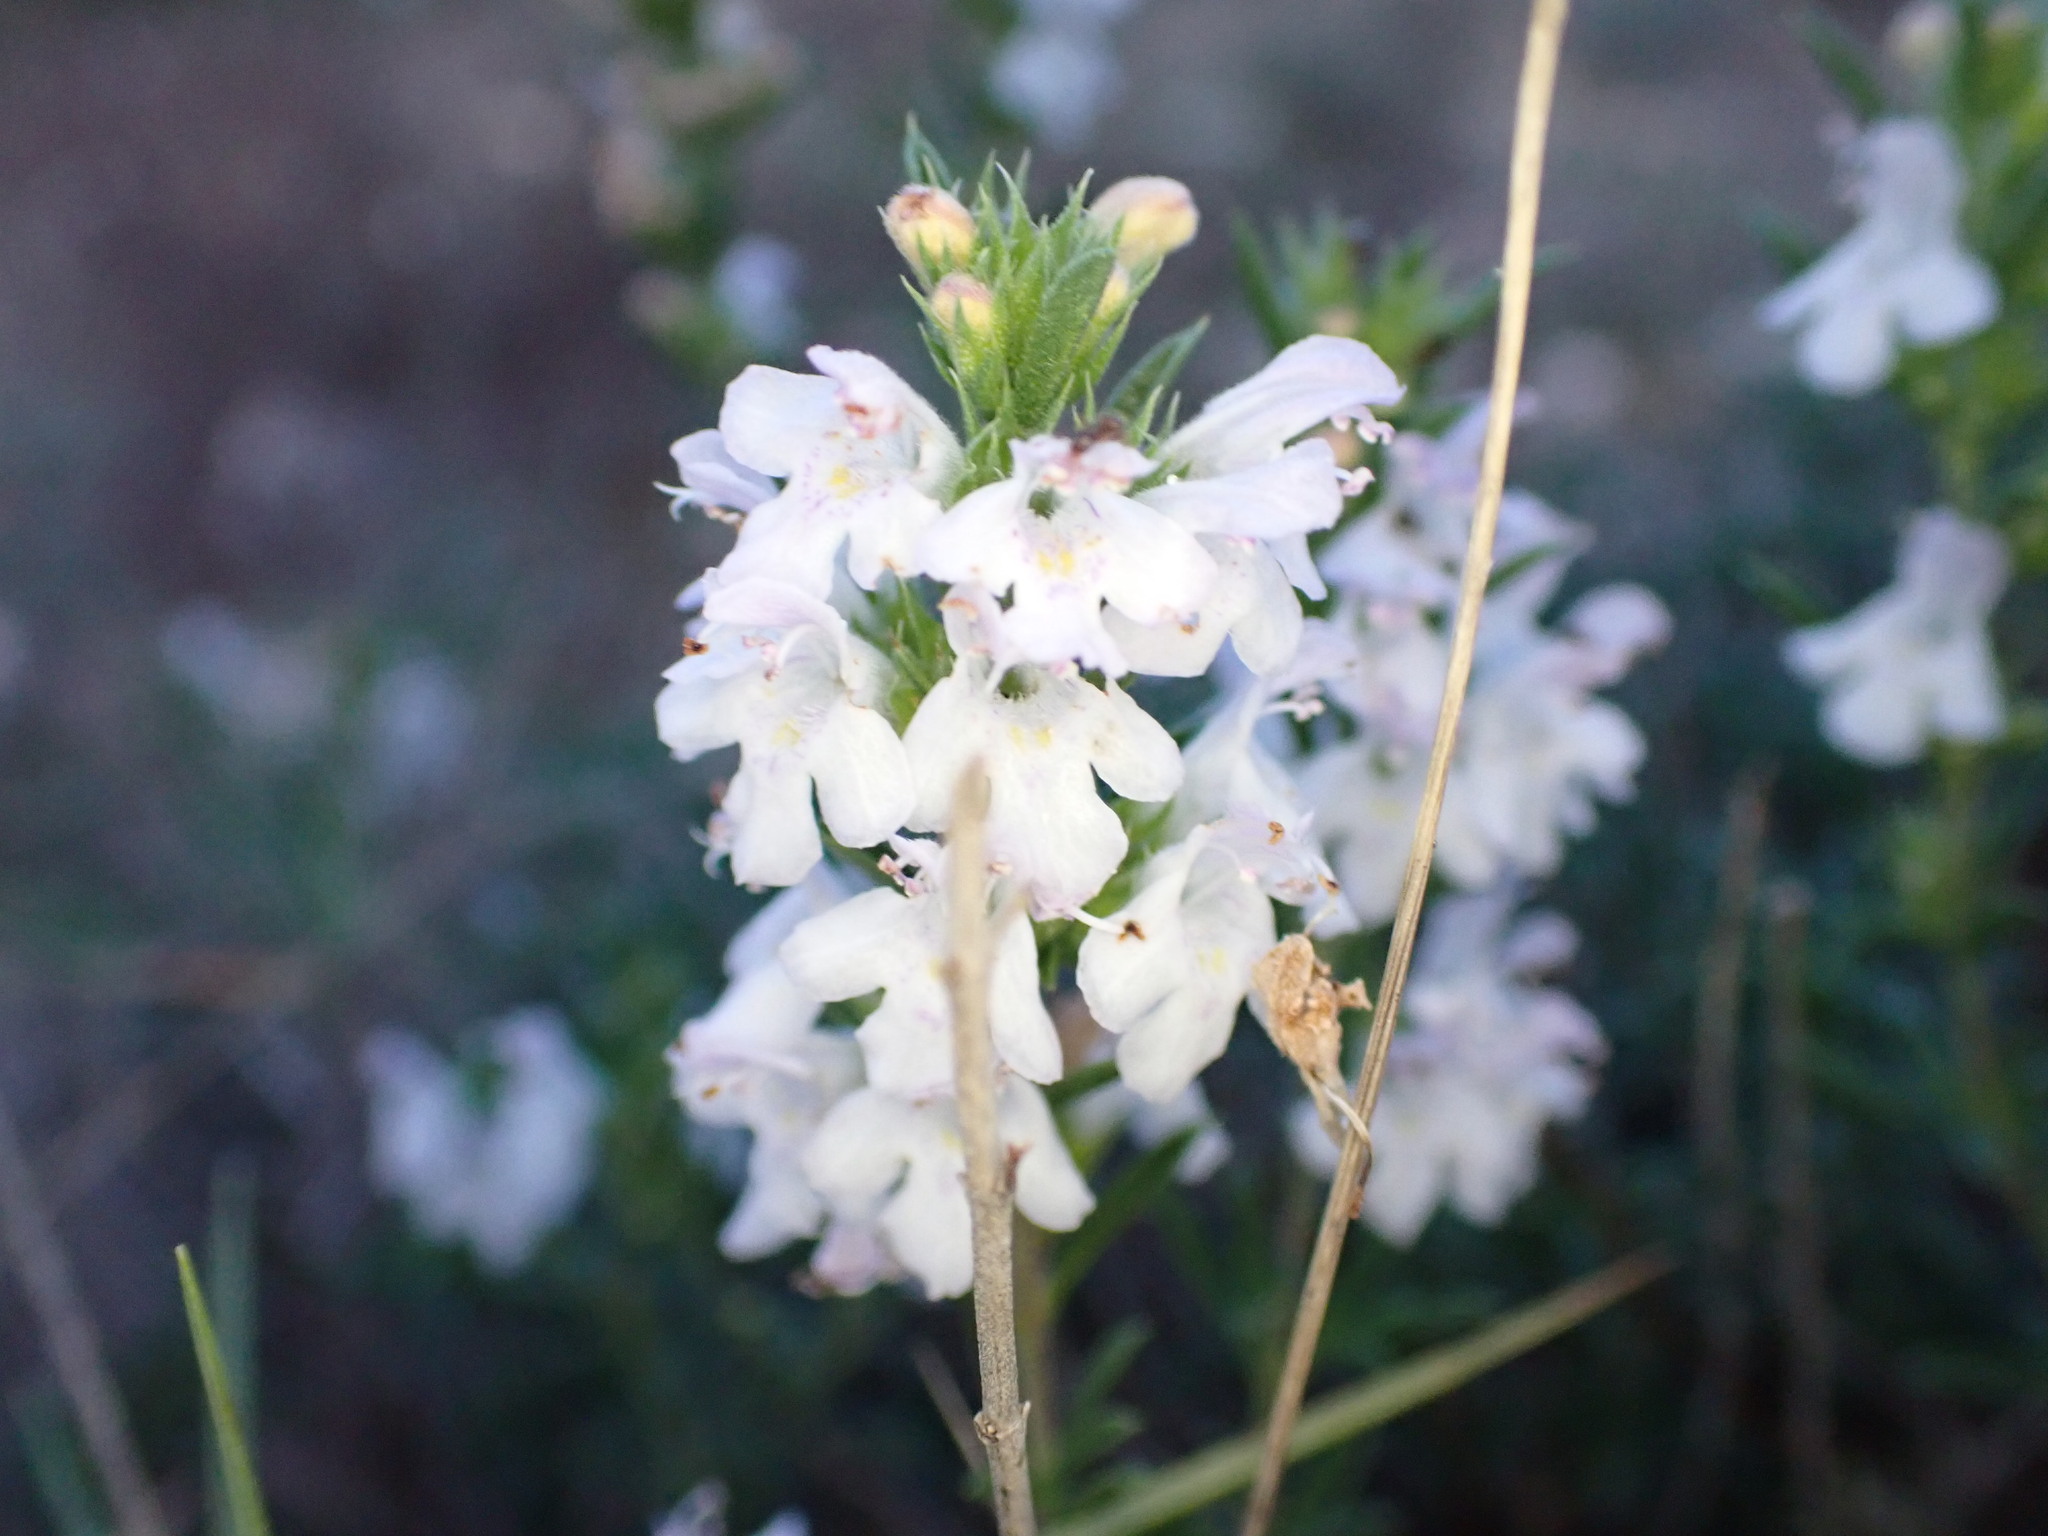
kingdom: Plantae
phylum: Tracheophyta
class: Magnoliopsida
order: Lamiales
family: Lamiaceae
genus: Satureja
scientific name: Satureja montana
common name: Winter savory
